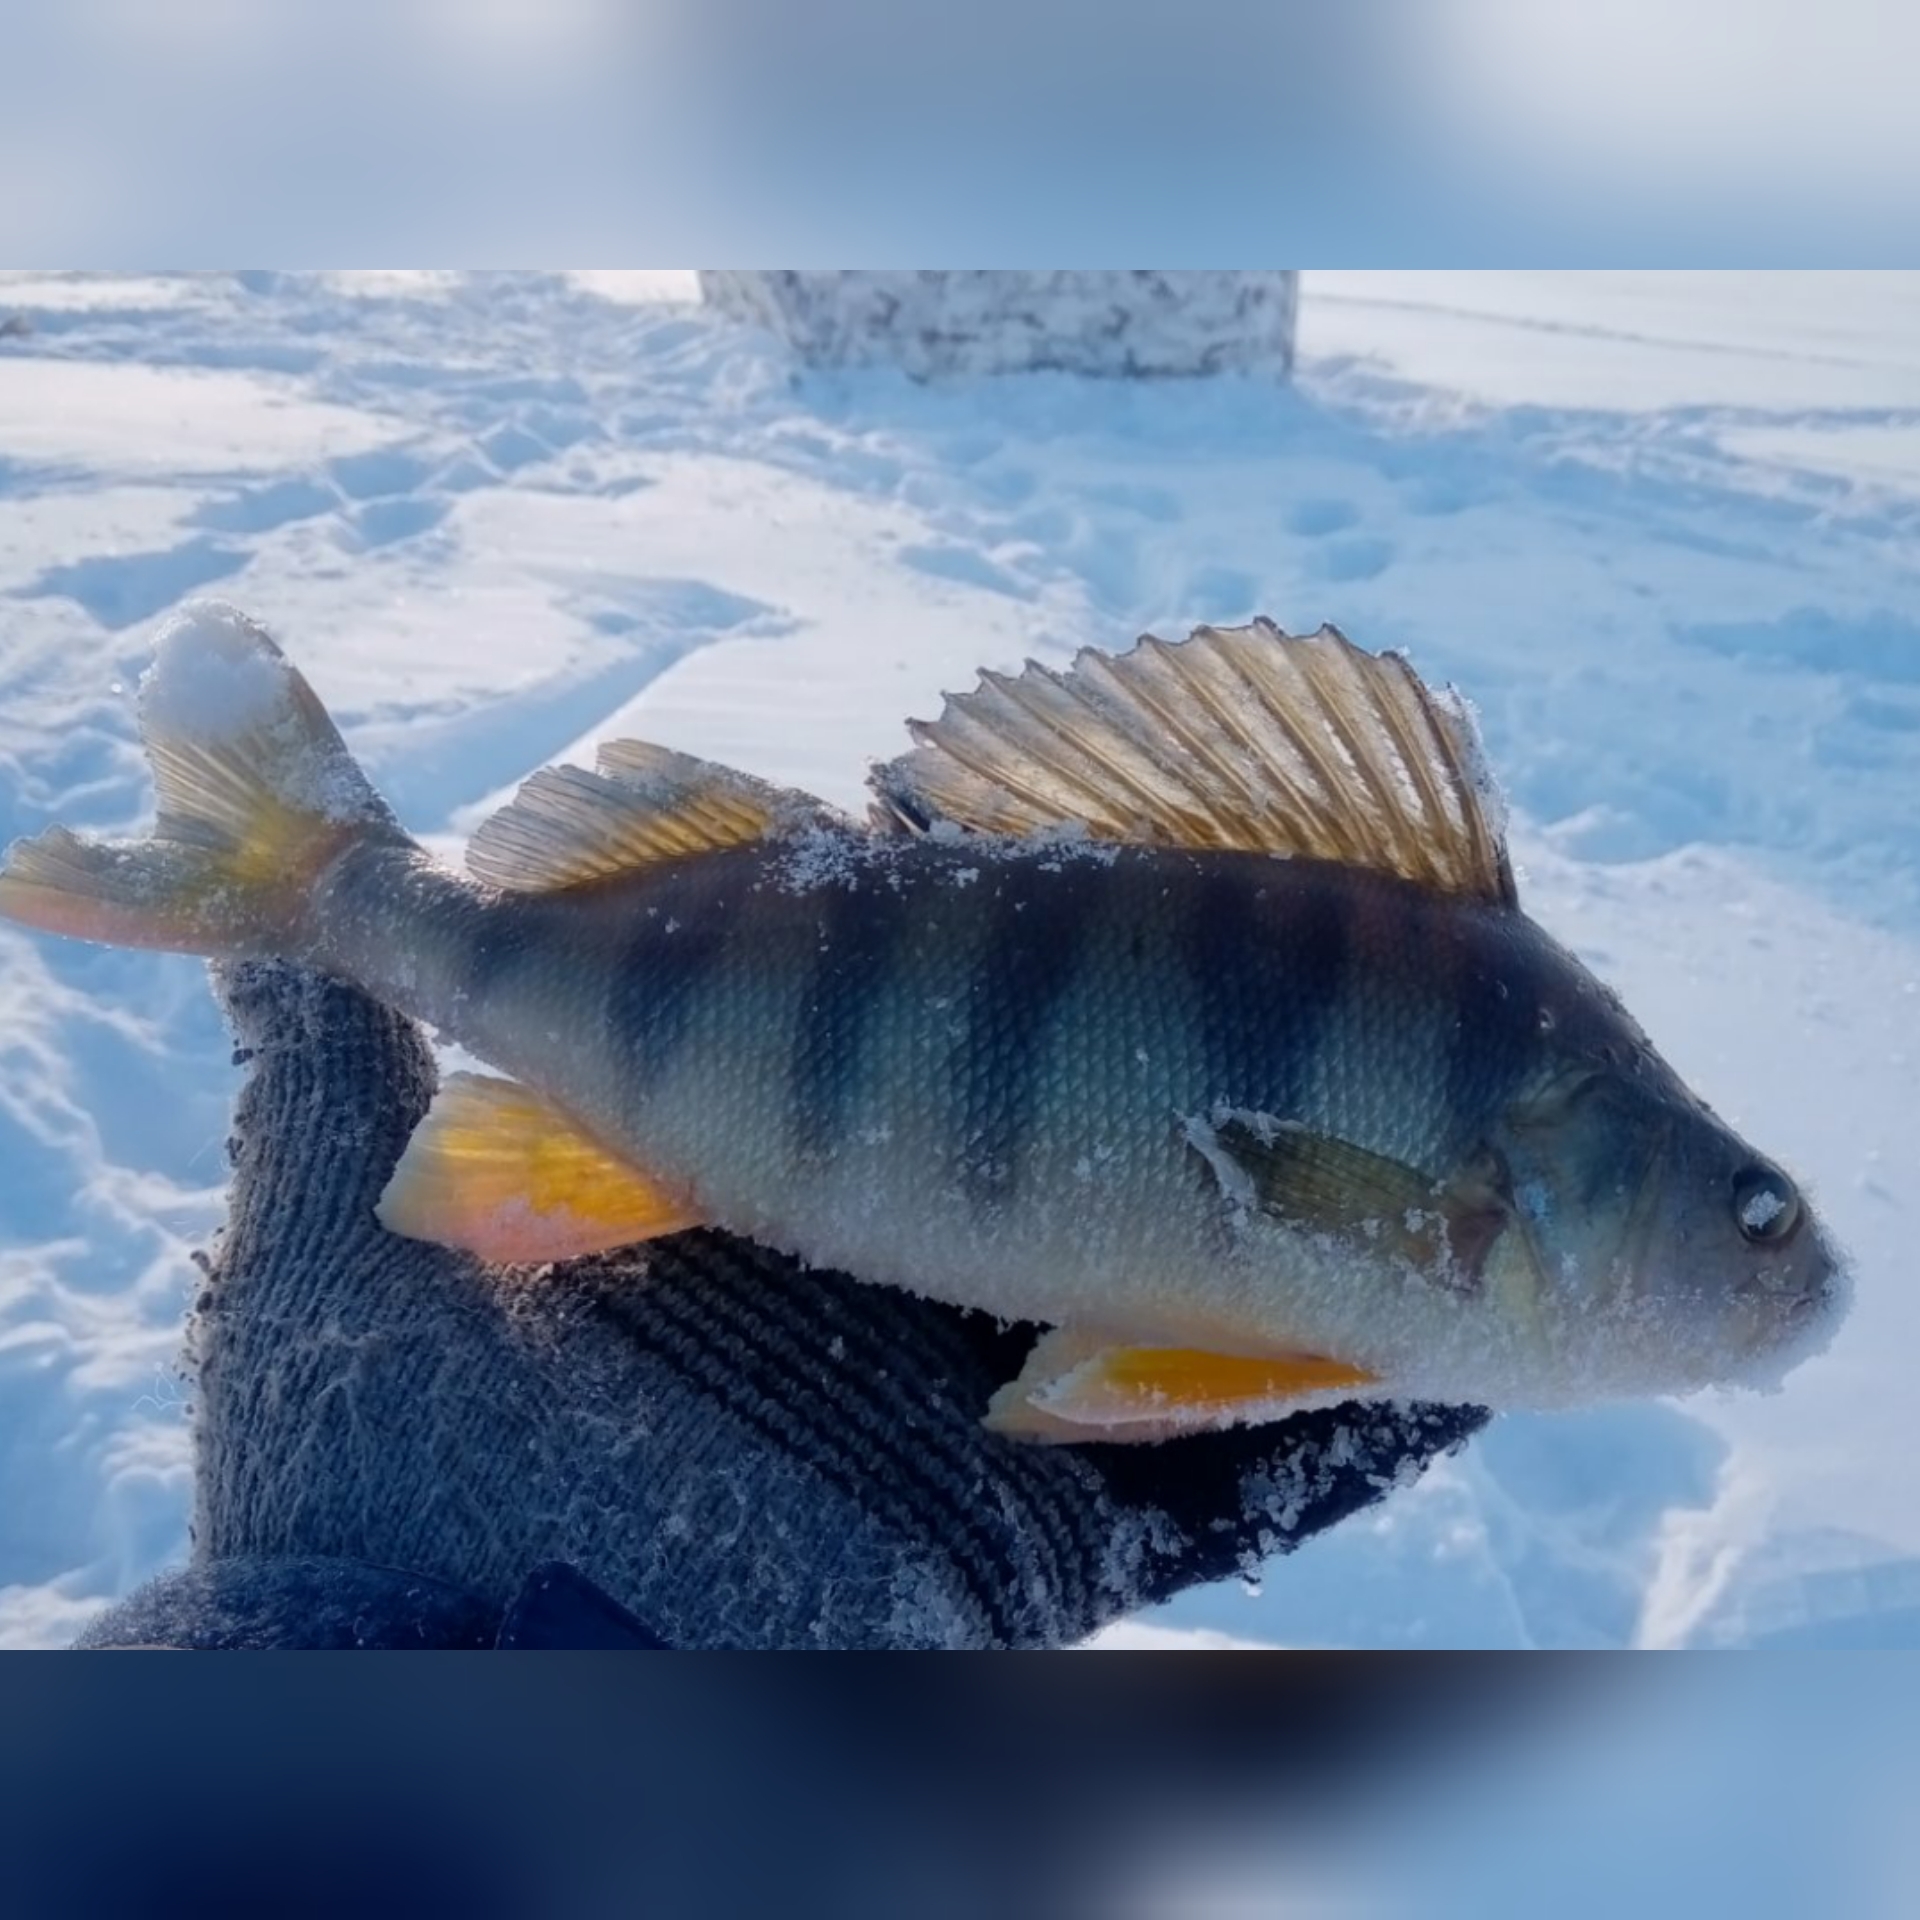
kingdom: Animalia
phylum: Chordata
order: Perciformes
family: Percidae
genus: Perca
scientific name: Perca fluviatilis
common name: Perch
